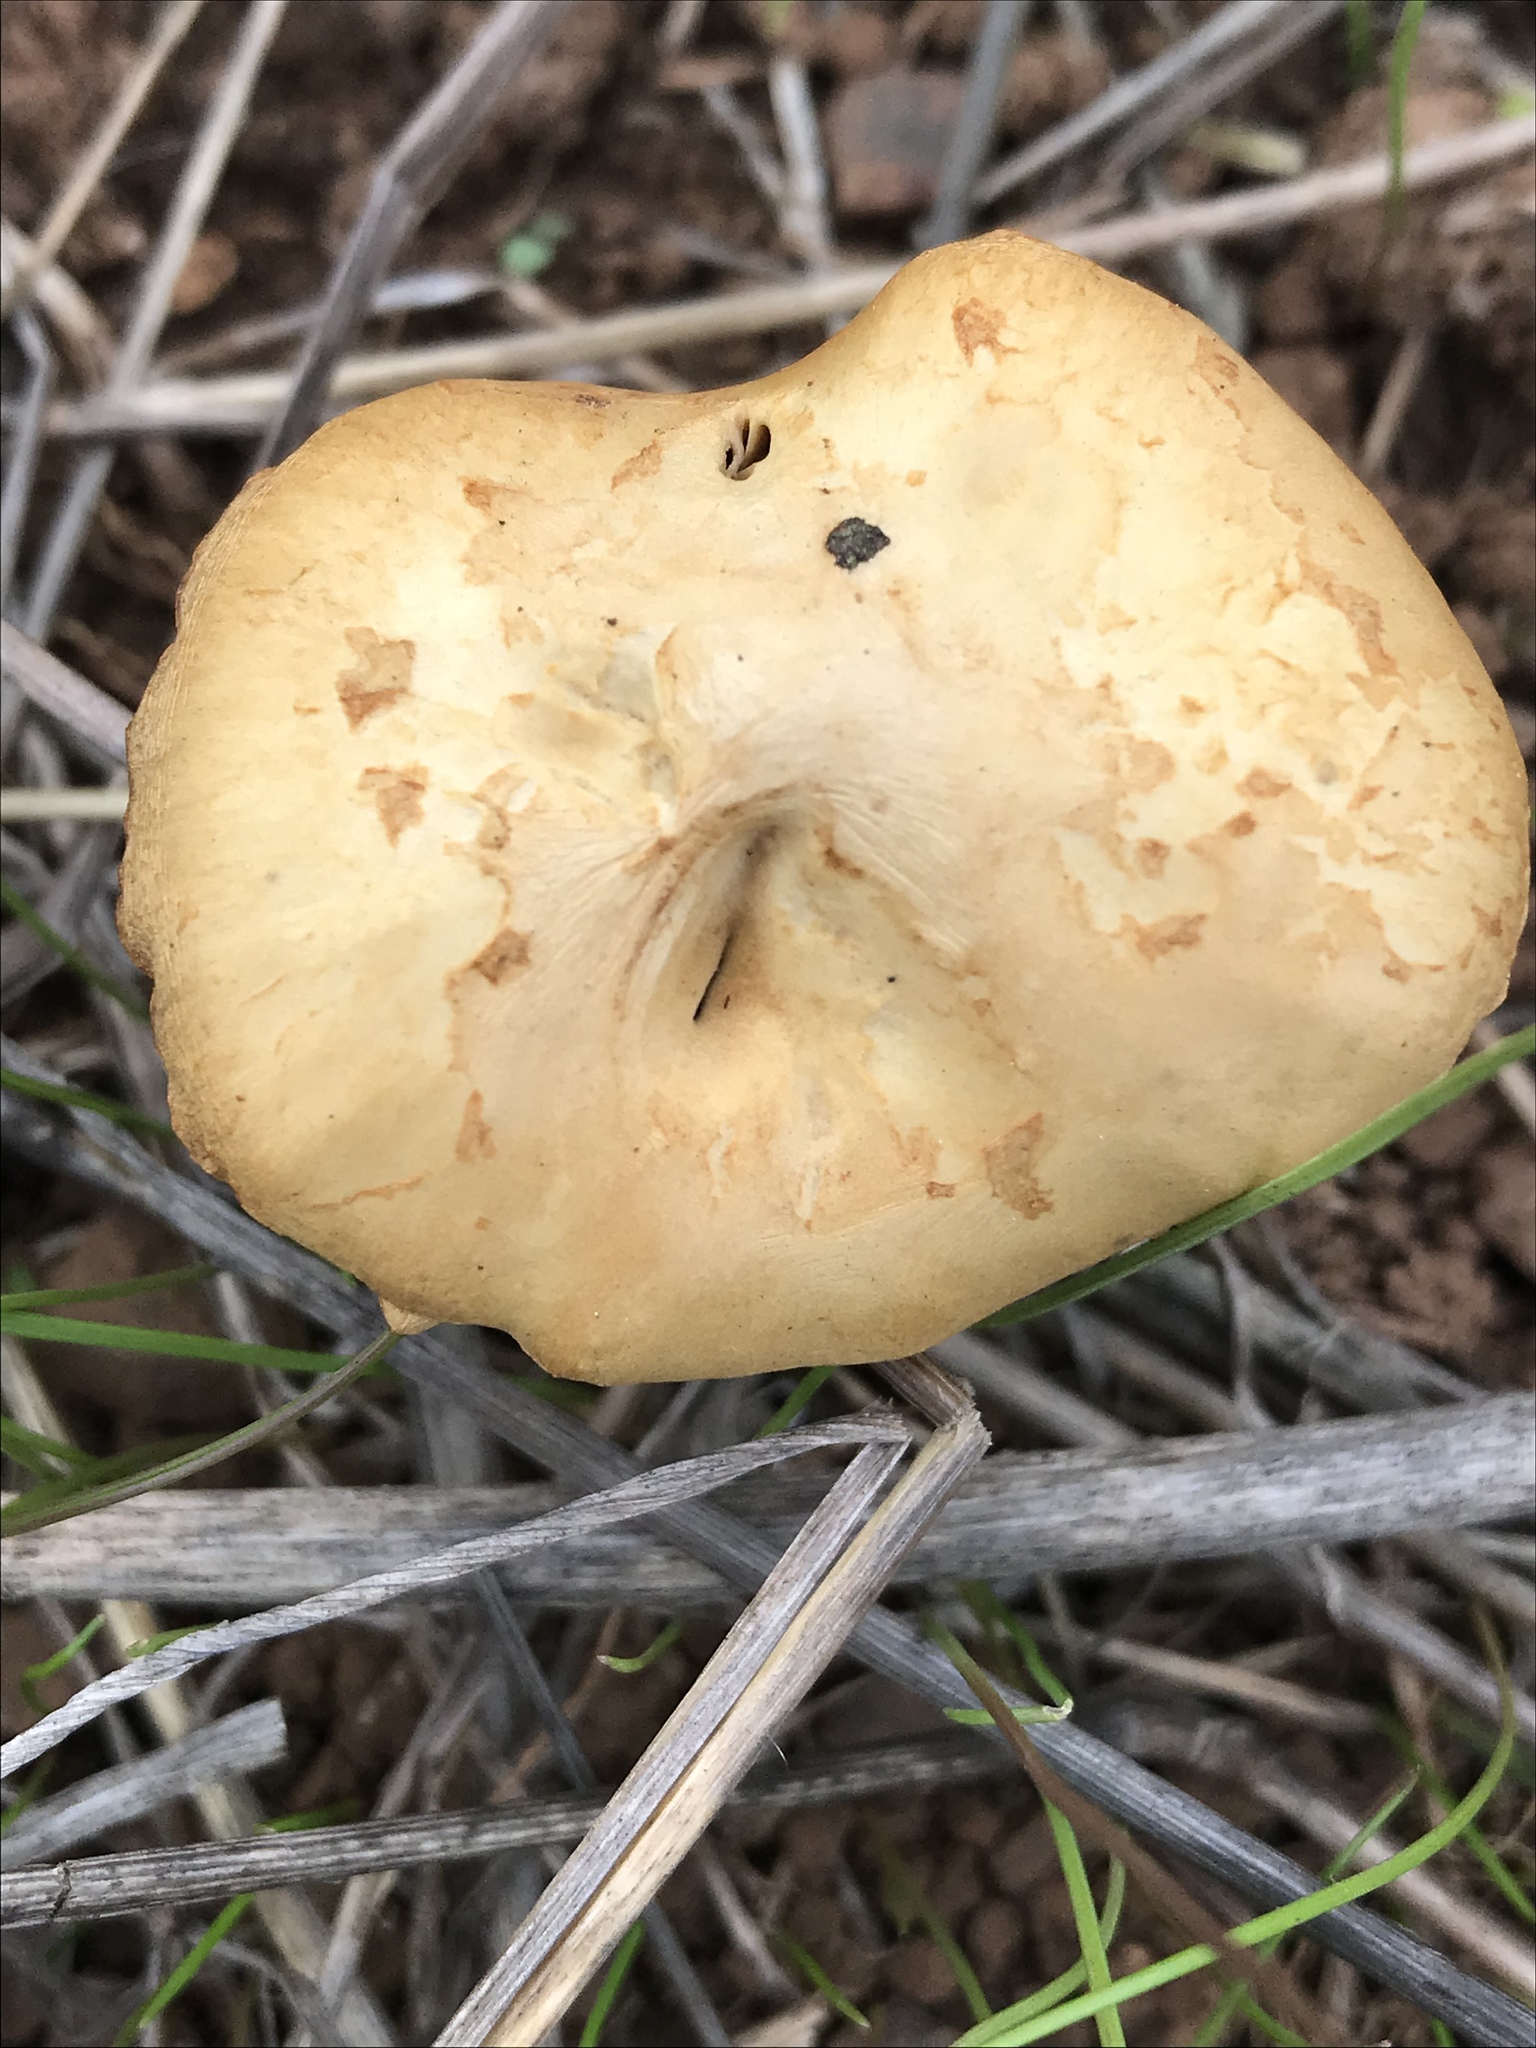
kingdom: Fungi
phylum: Basidiomycota
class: Agaricomycetes
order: Agaricales
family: Strophariaceae
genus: Agrocybe
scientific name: Agrocybe pediades
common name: Common fieldcap
